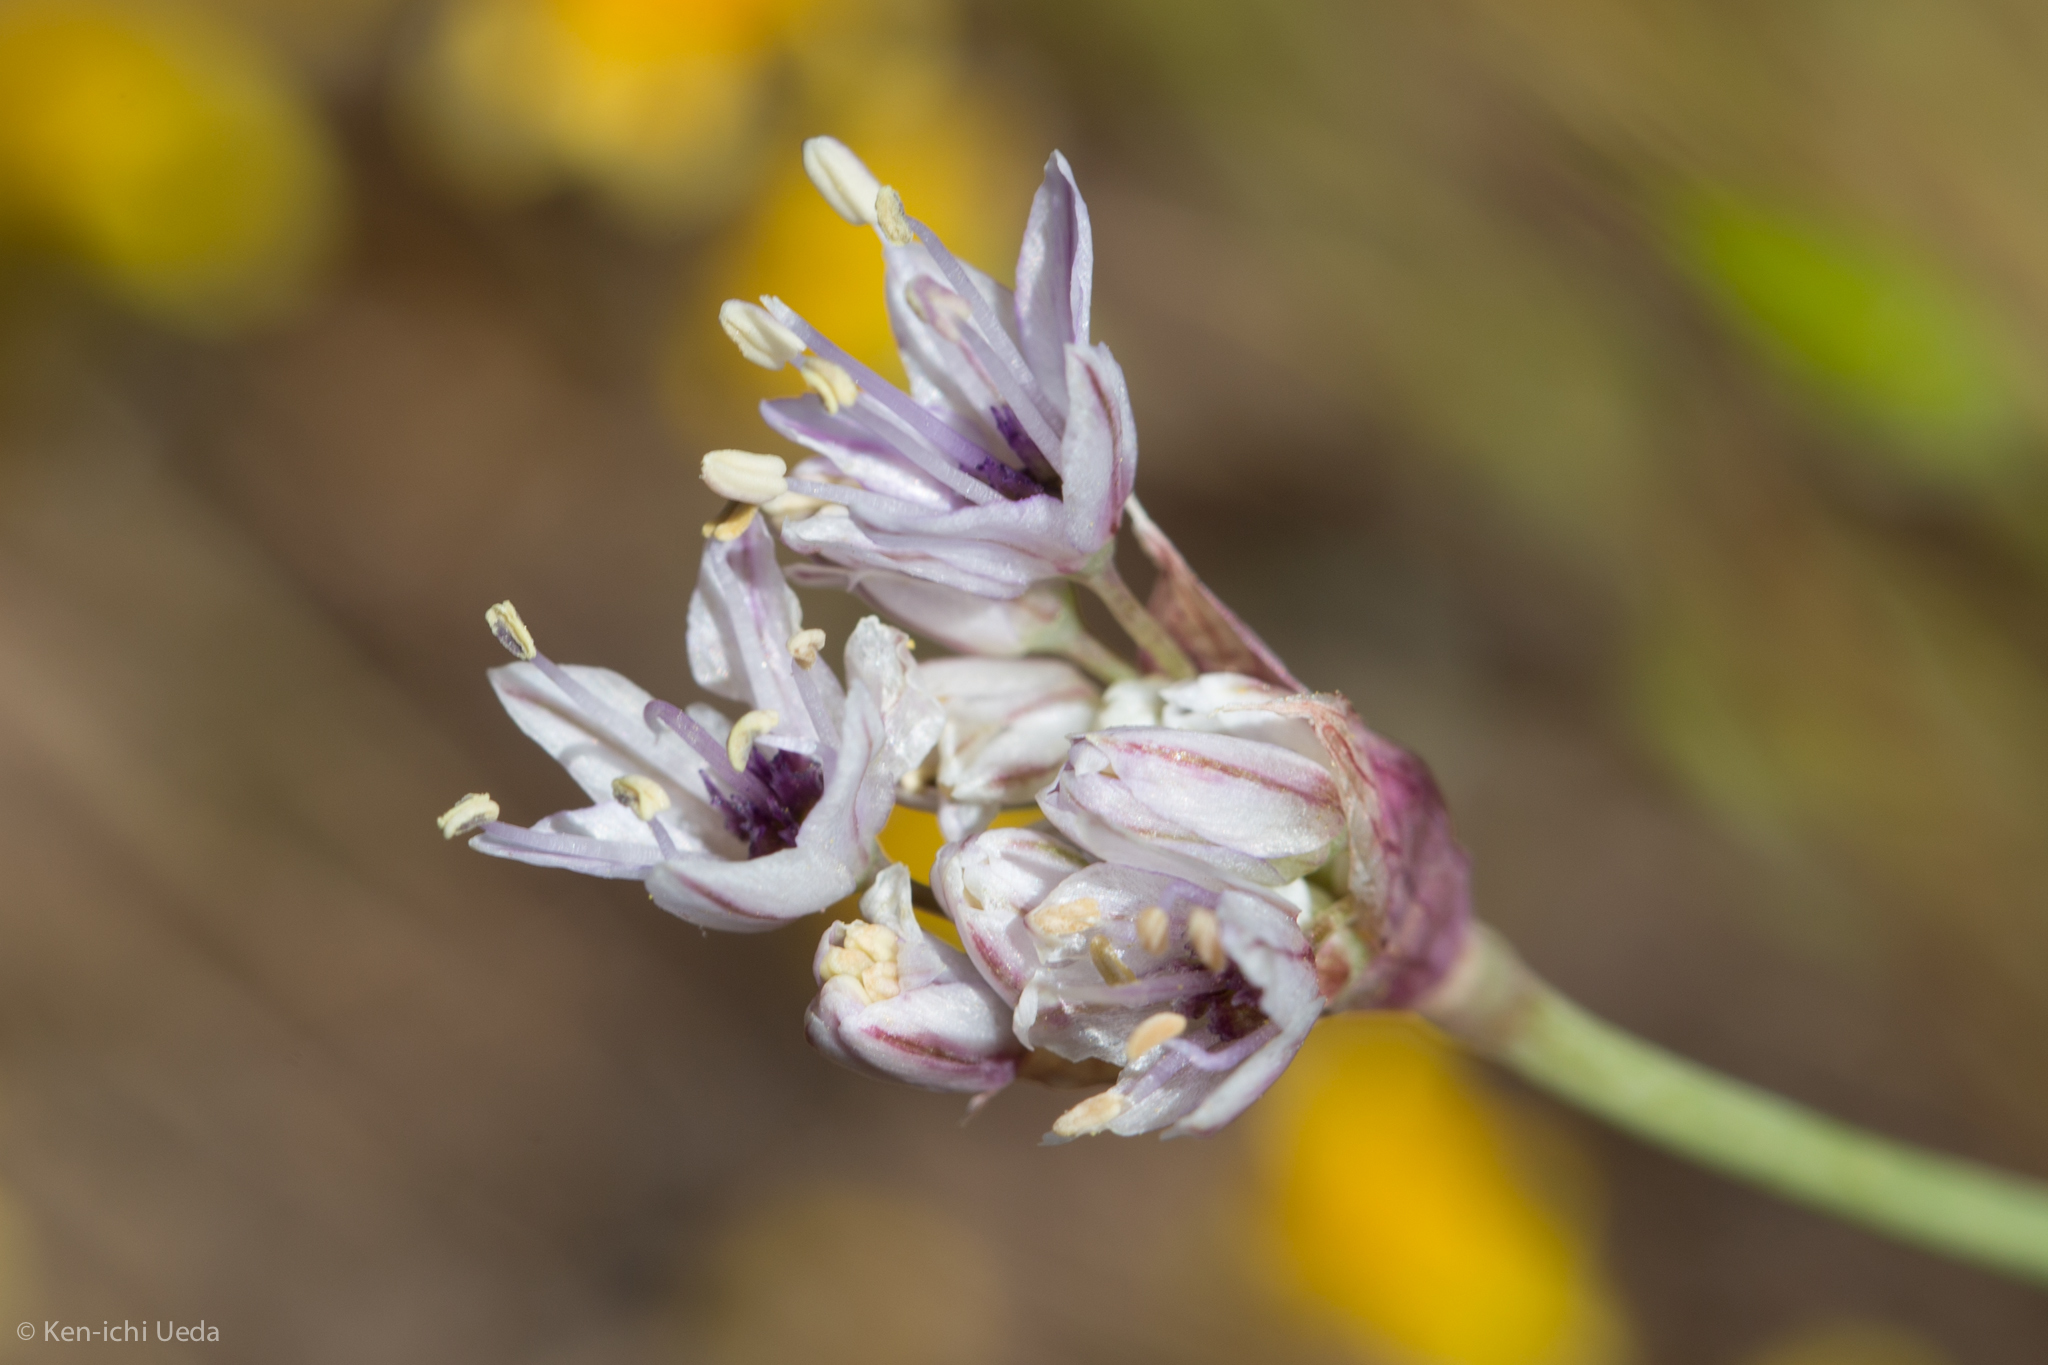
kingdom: Plantae
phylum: Tracheophyta
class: Liliopsida
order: Asparagales
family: Amaryllidaceae
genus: Allium
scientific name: Allium howellii
